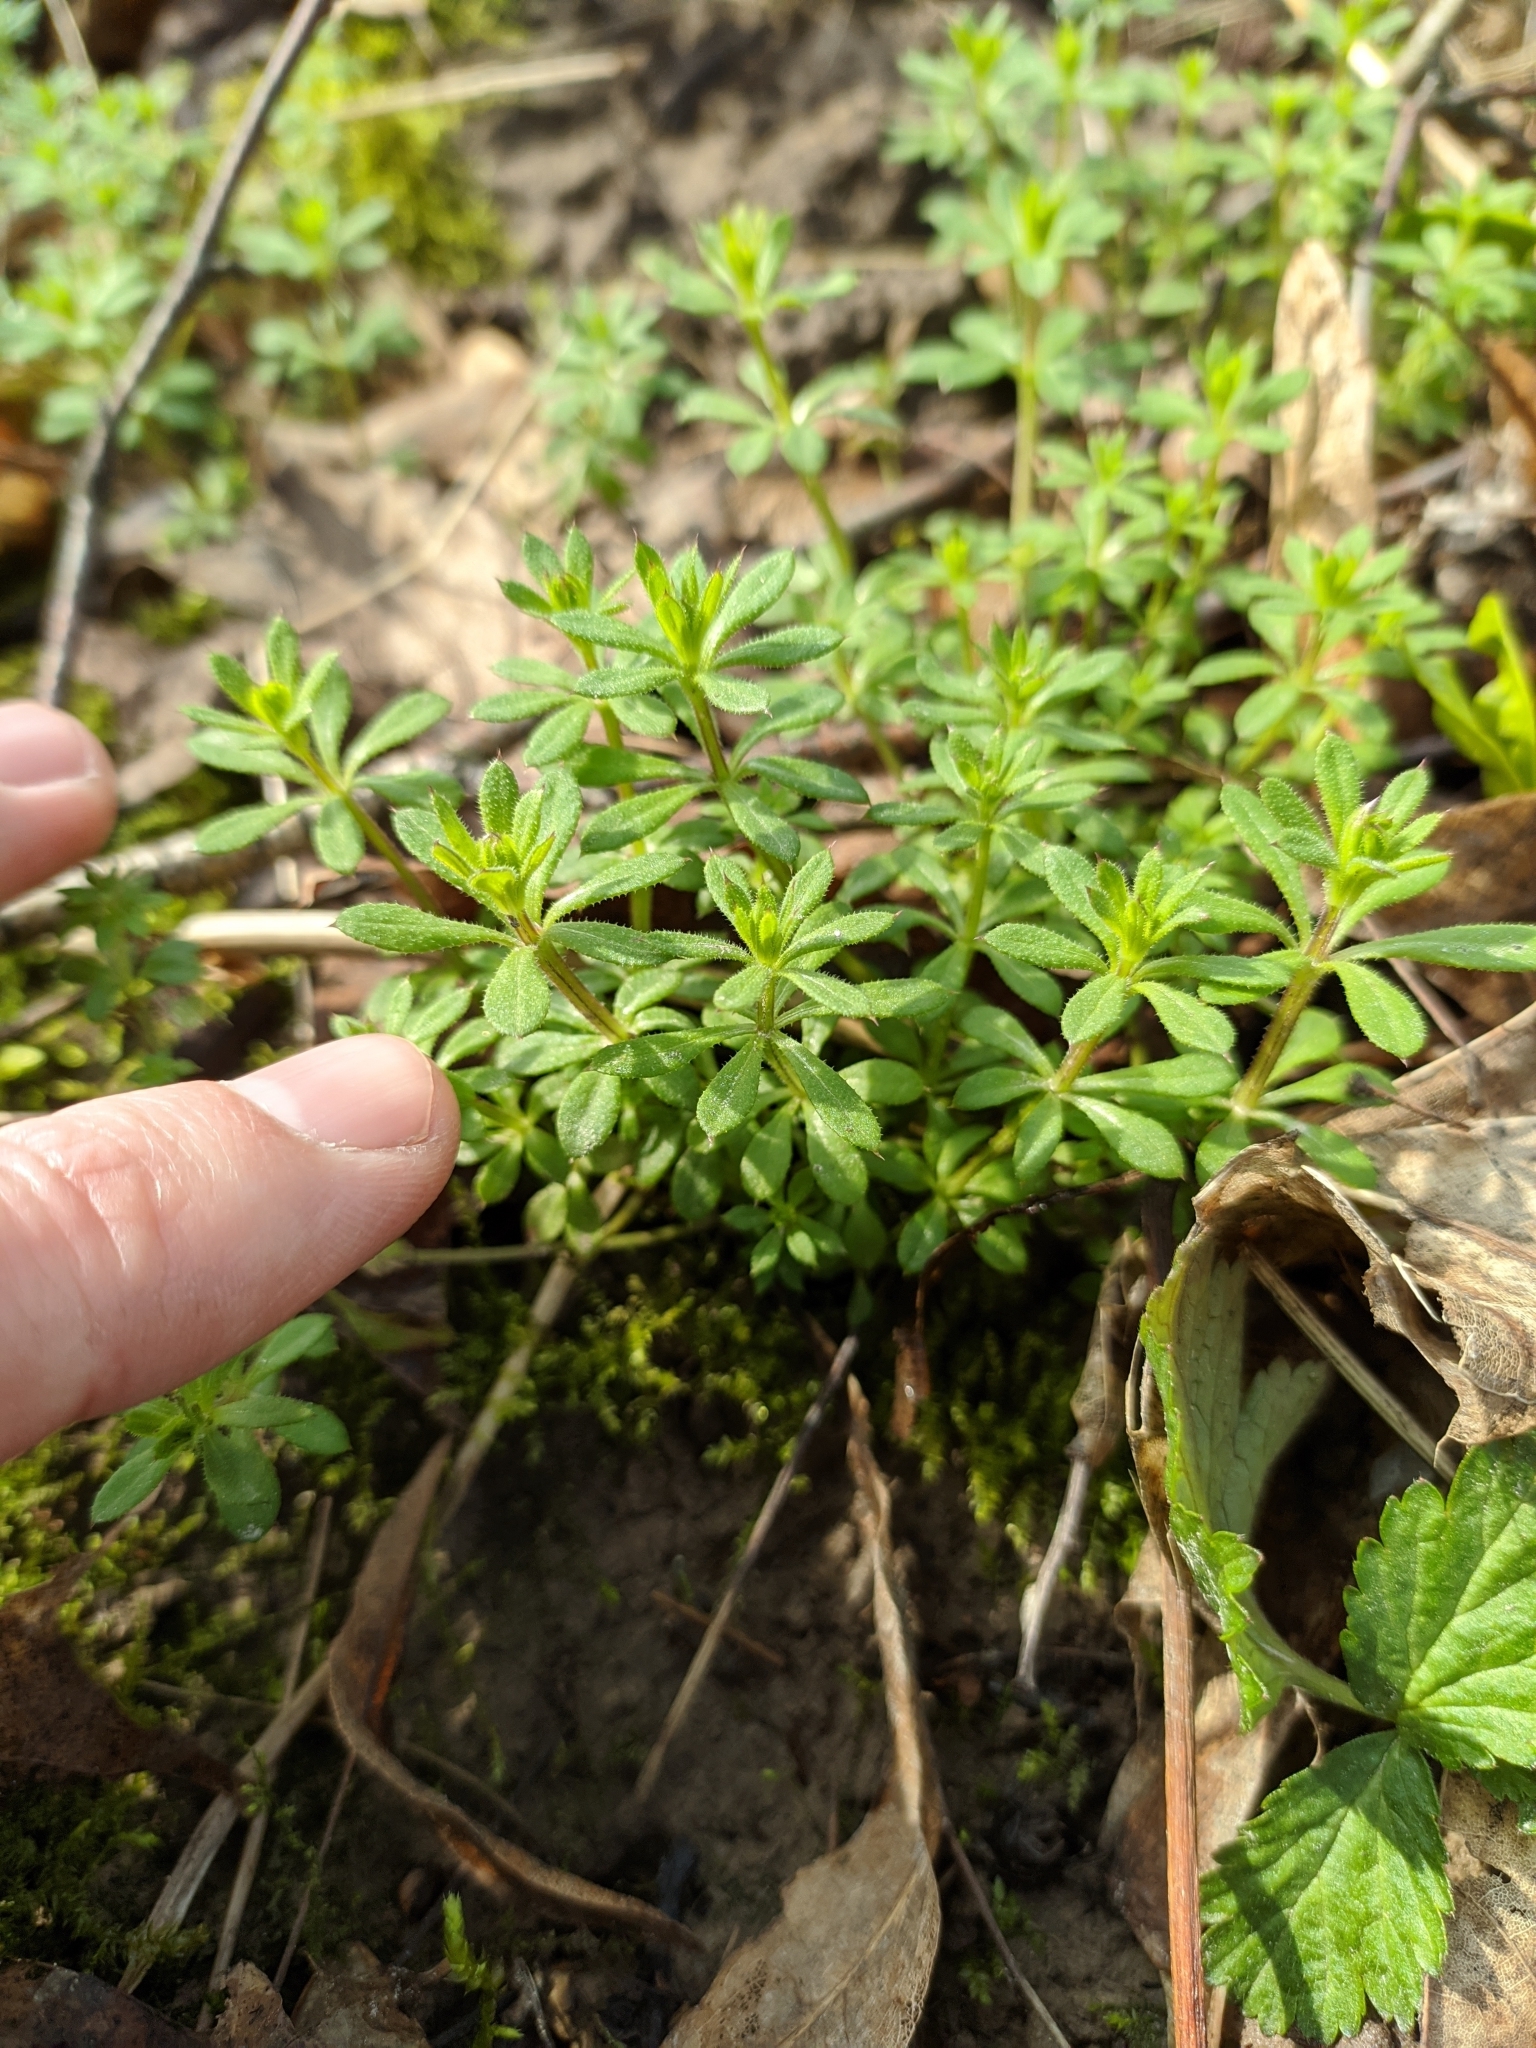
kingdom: Plantae
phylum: Tracheophyta
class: Magnoliopsida
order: Gentianales
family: Rubiaceae
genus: Galium
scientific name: Galium aparine
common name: Cleavers
